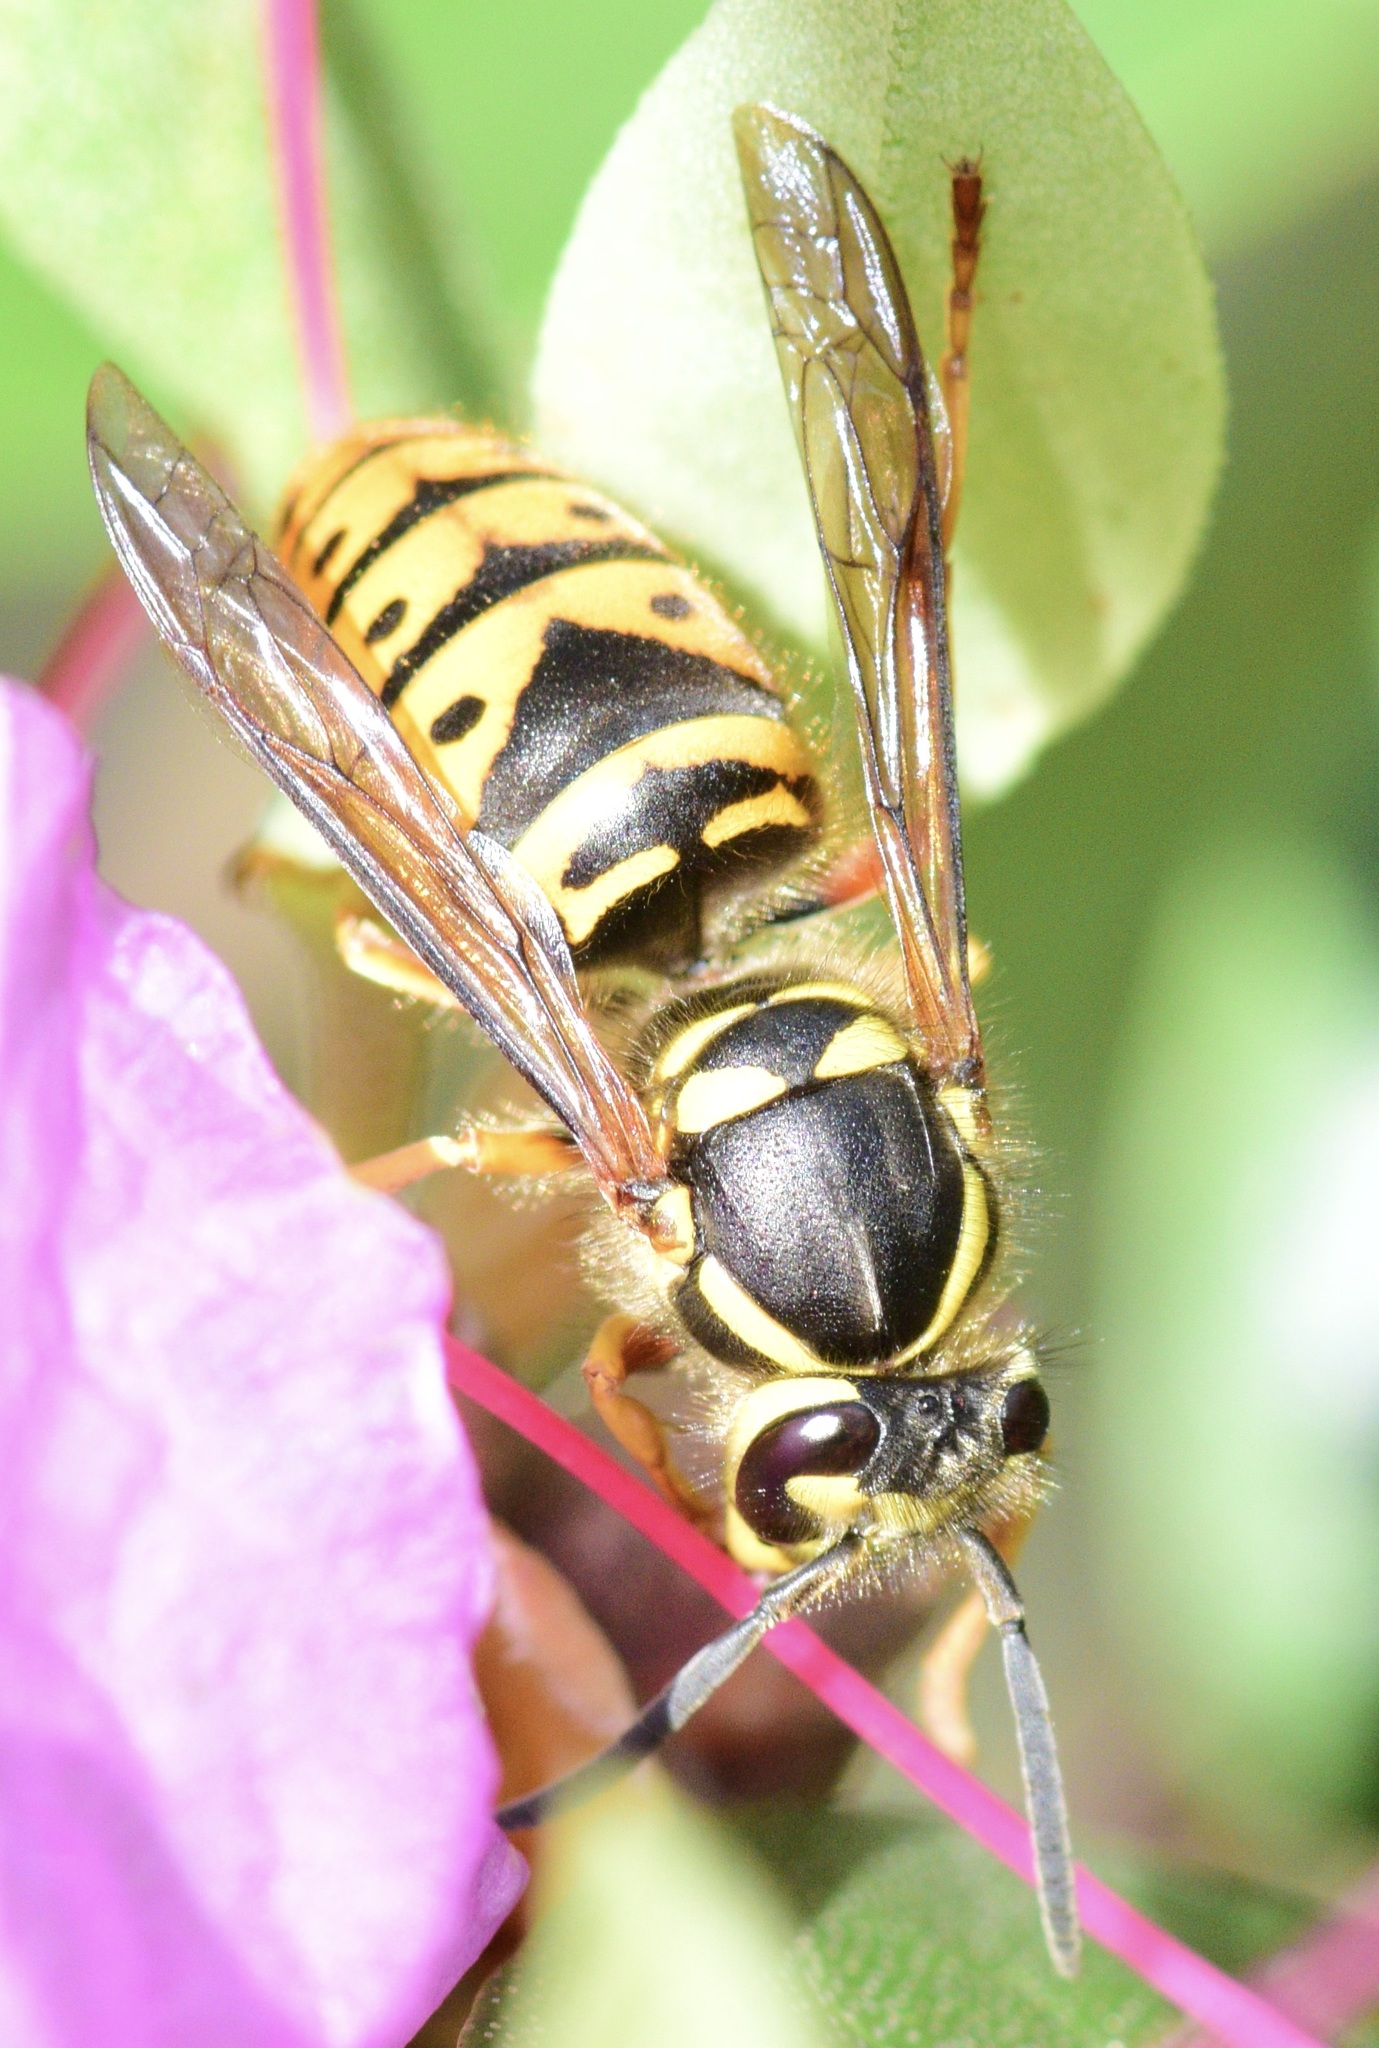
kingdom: Animalia
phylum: Arthropoda
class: Insecta
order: Hymenoptera
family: Vespidae
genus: Vespula
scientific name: Vespula maculifrons
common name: Eastern yellowjacket
